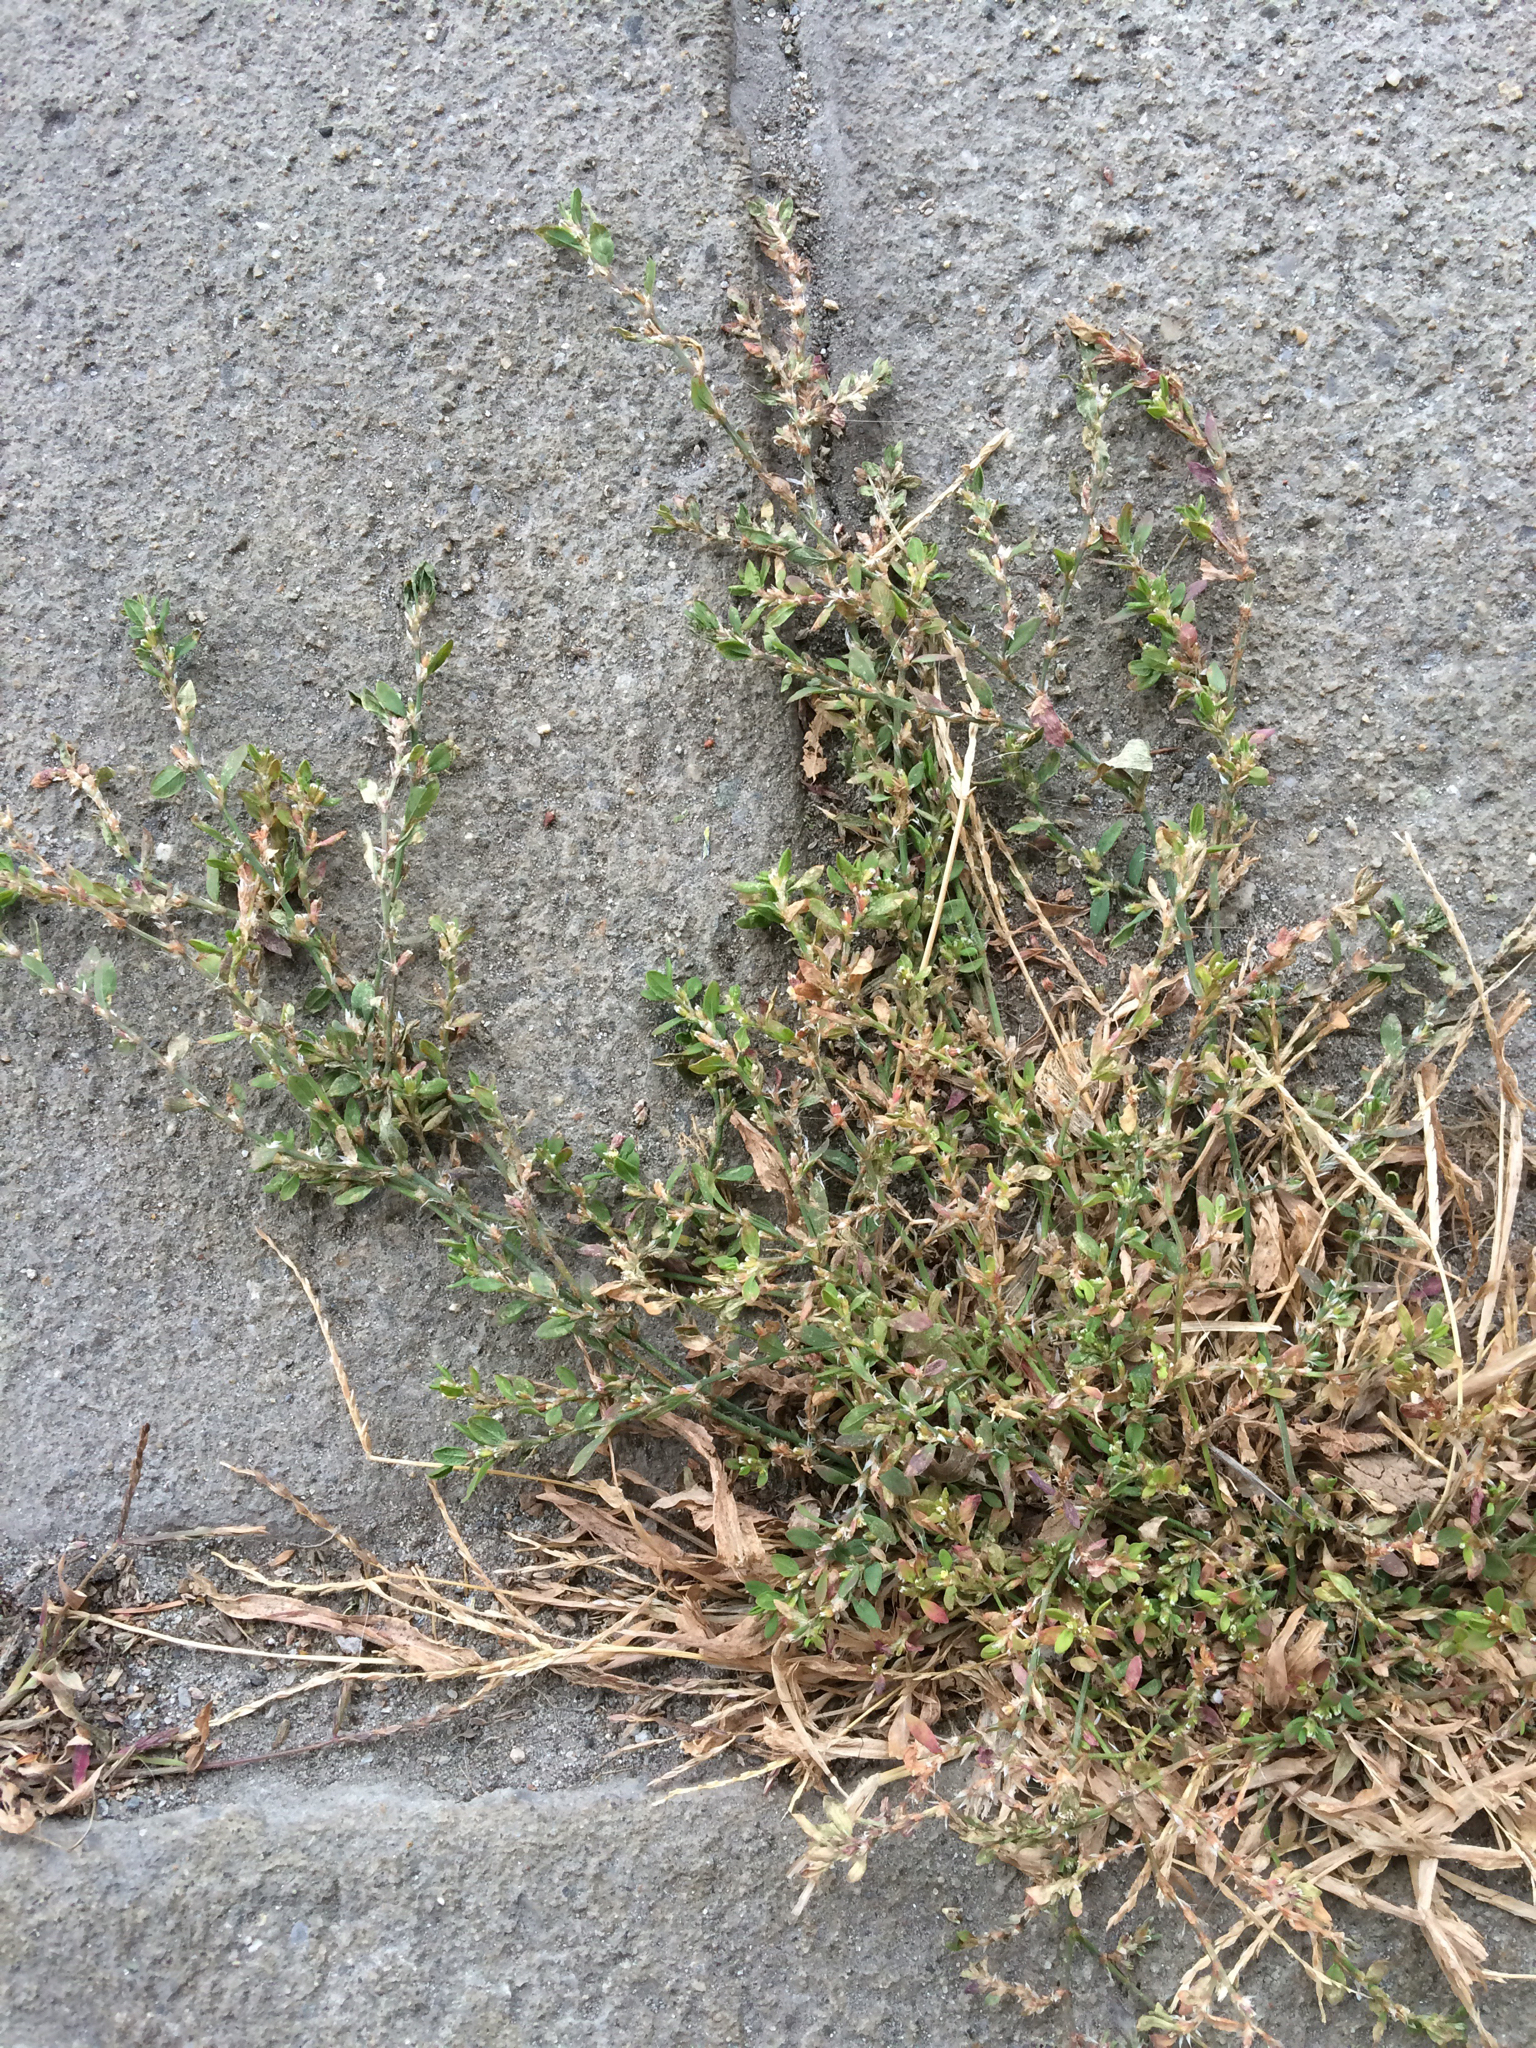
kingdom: Plantae
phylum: Tracheophyta
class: Magnoliopsida
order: Caryophyllales
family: Polygonaceae
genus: Polygonum
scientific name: Polygonum aviculare
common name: Prostrate knotweed
